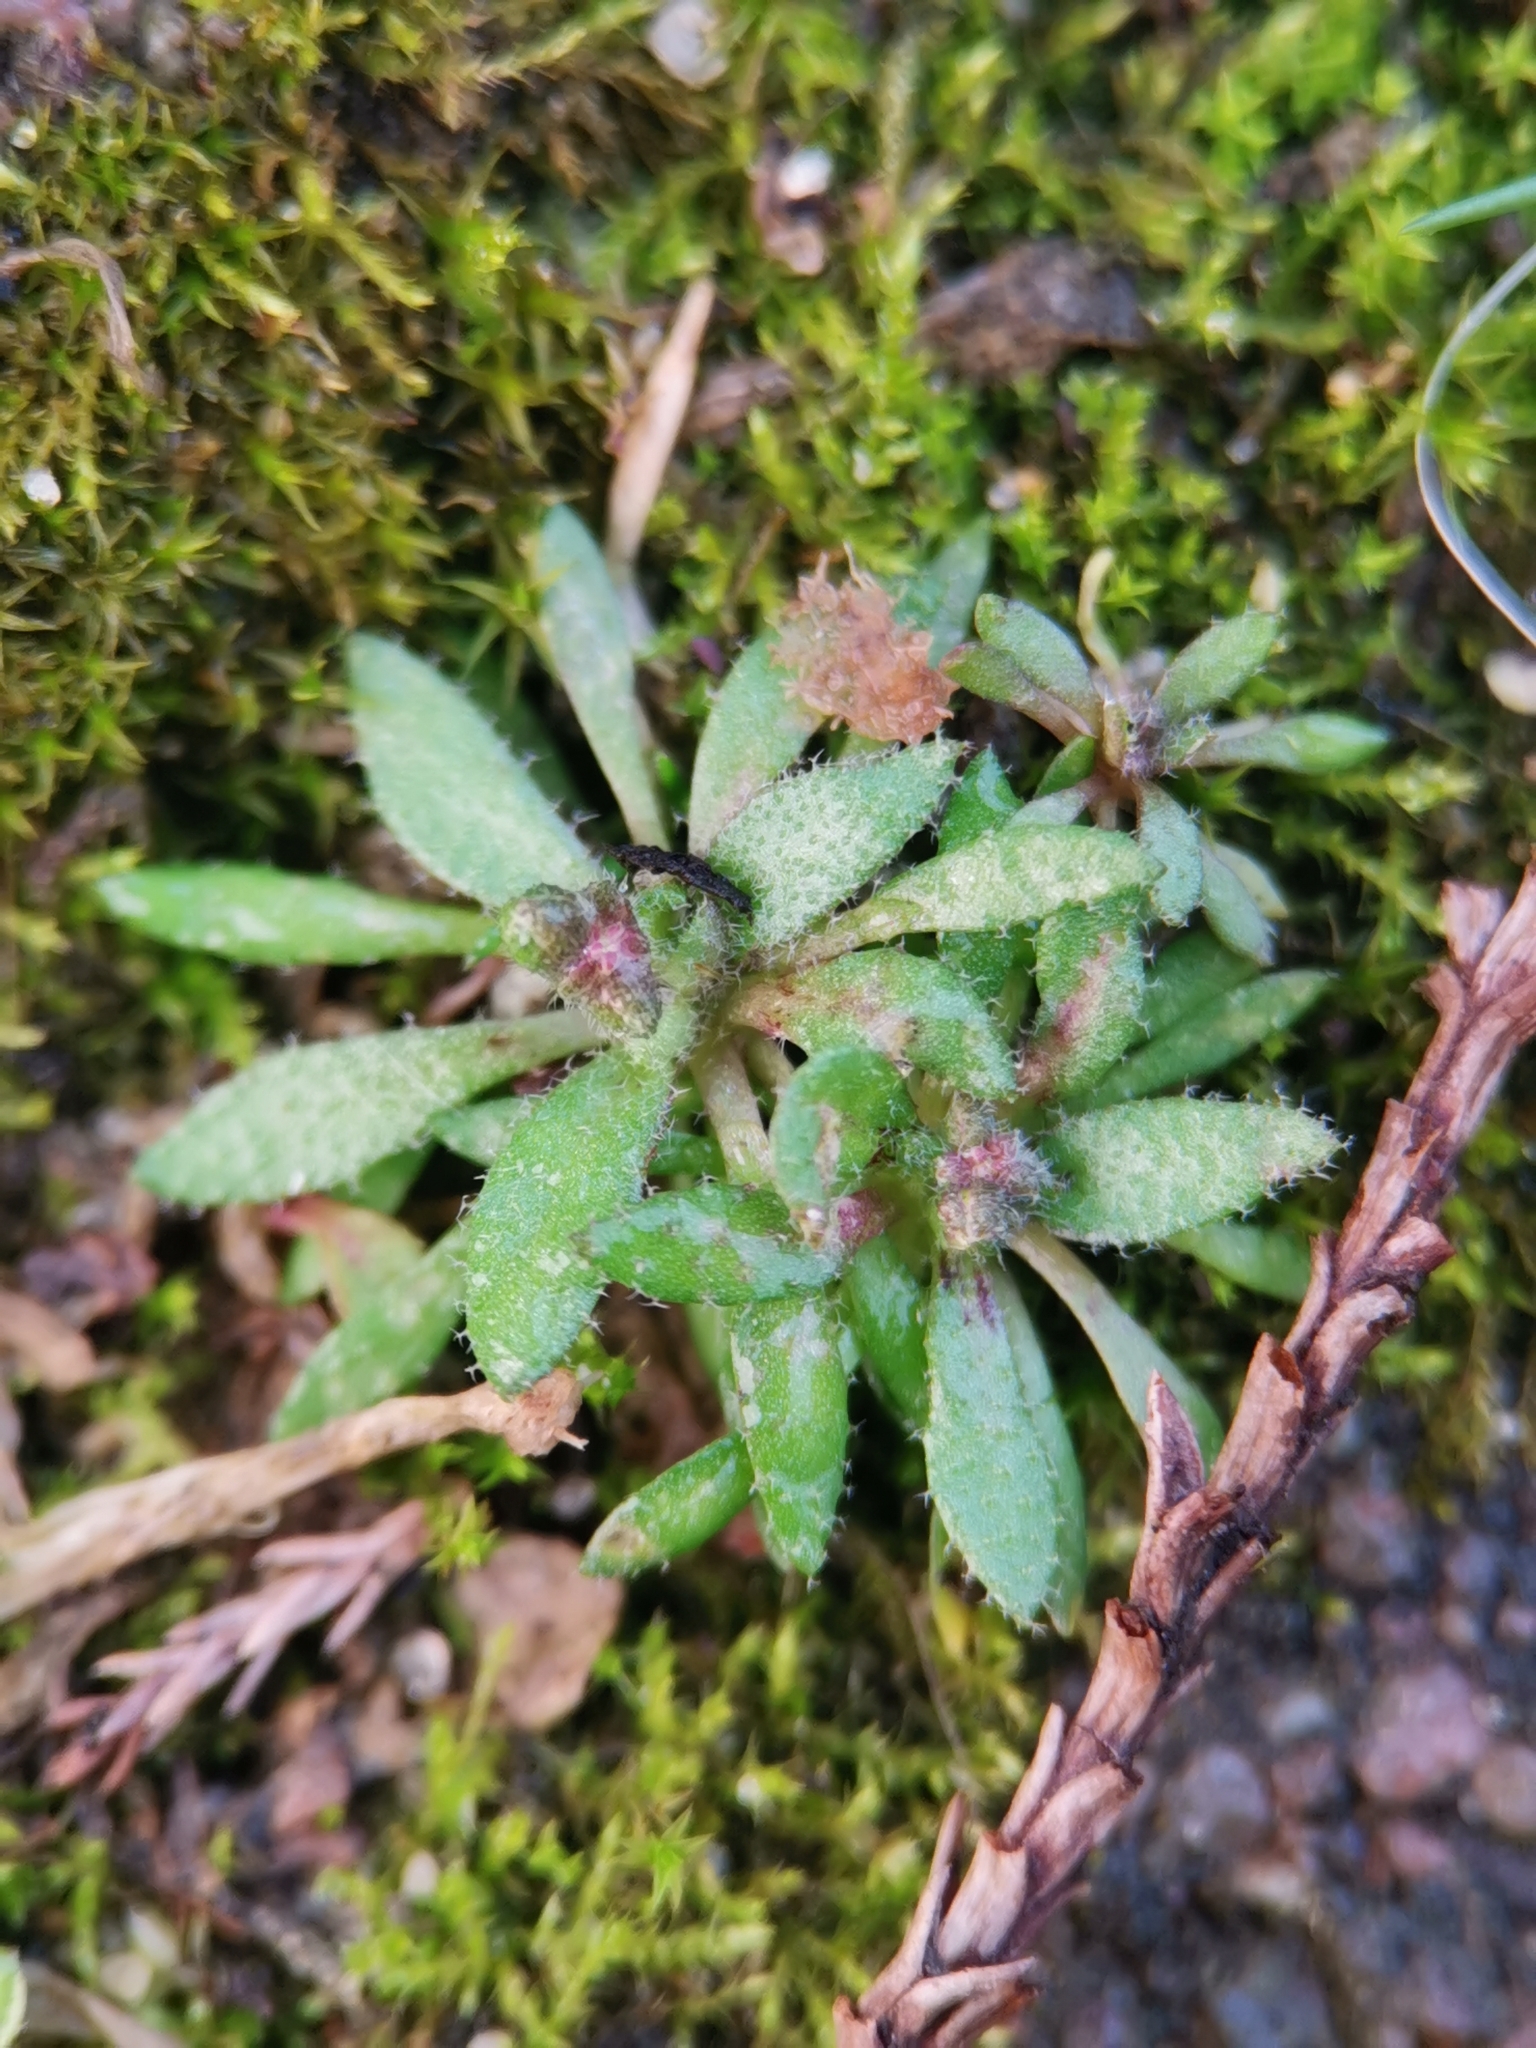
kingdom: Plantae
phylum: Tracheophyta
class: Magnoliopsida
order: Brassicales
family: Brassicaceae
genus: Draba
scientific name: Draba verna
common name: Spring draba
